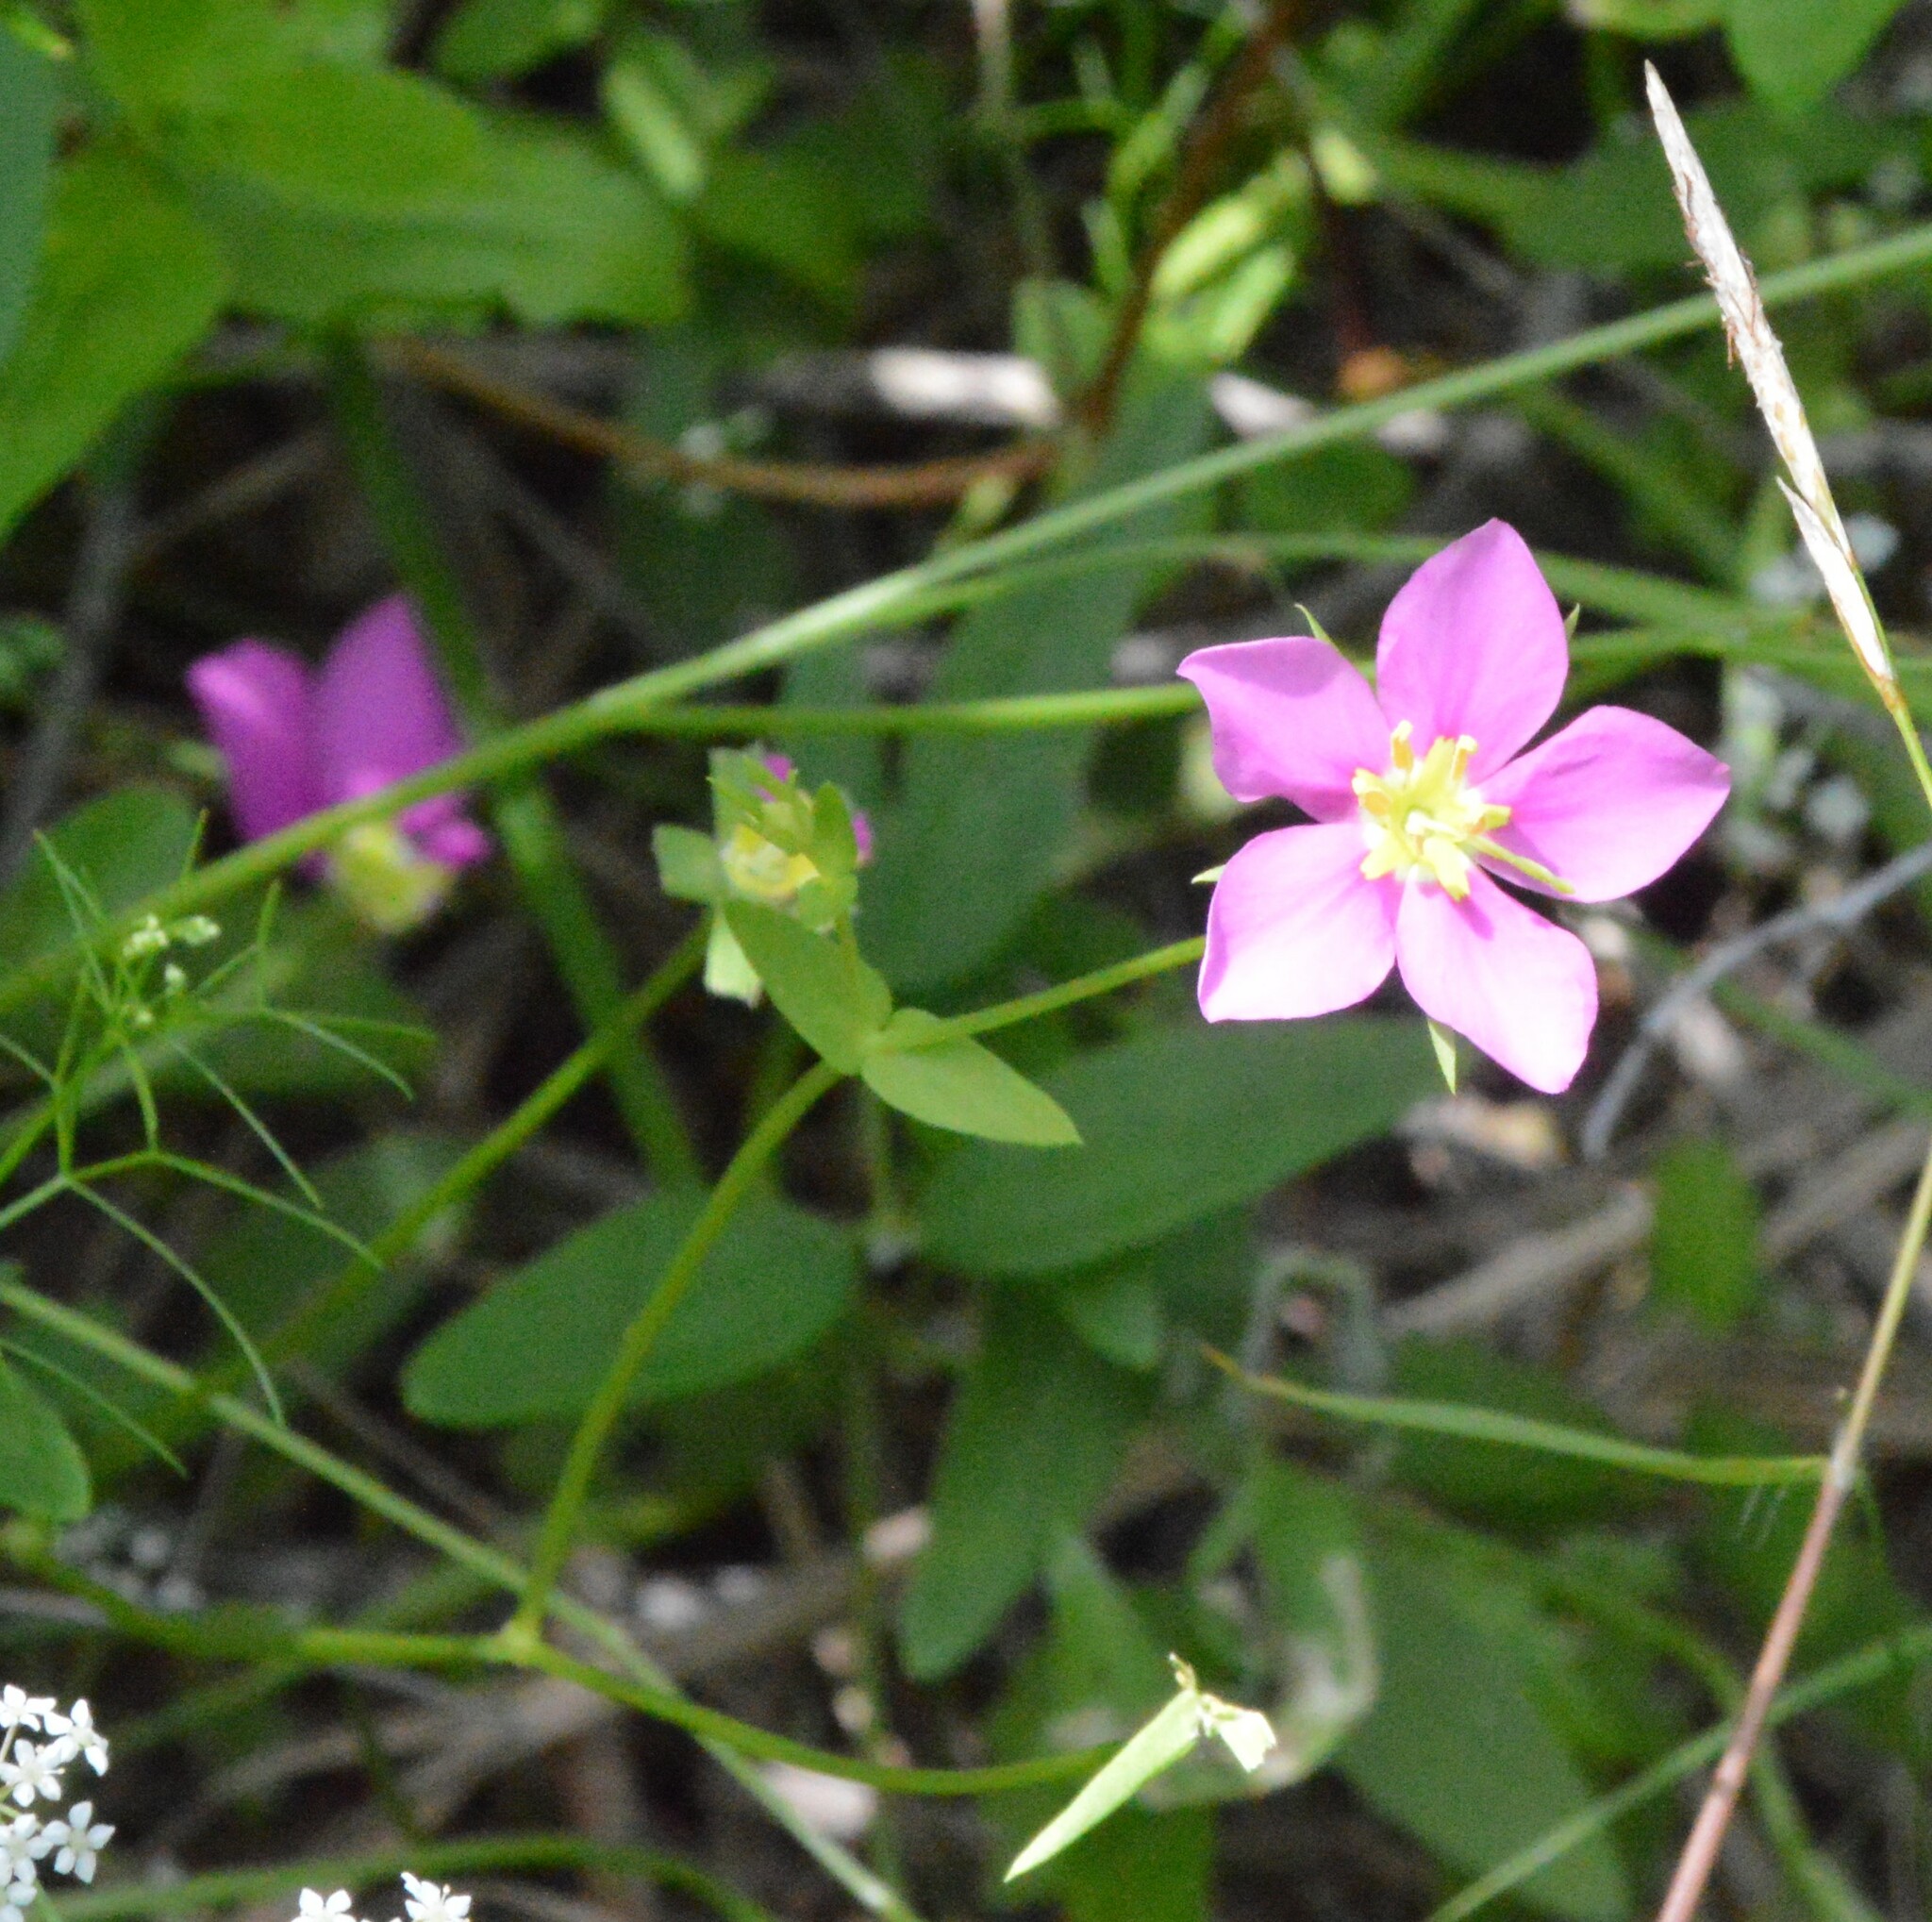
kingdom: Plantae
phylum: Tracheophyta
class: Magnoliopsida
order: Gentianales
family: Gentianaceae
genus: Sabatia
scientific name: Sabatia campestris
